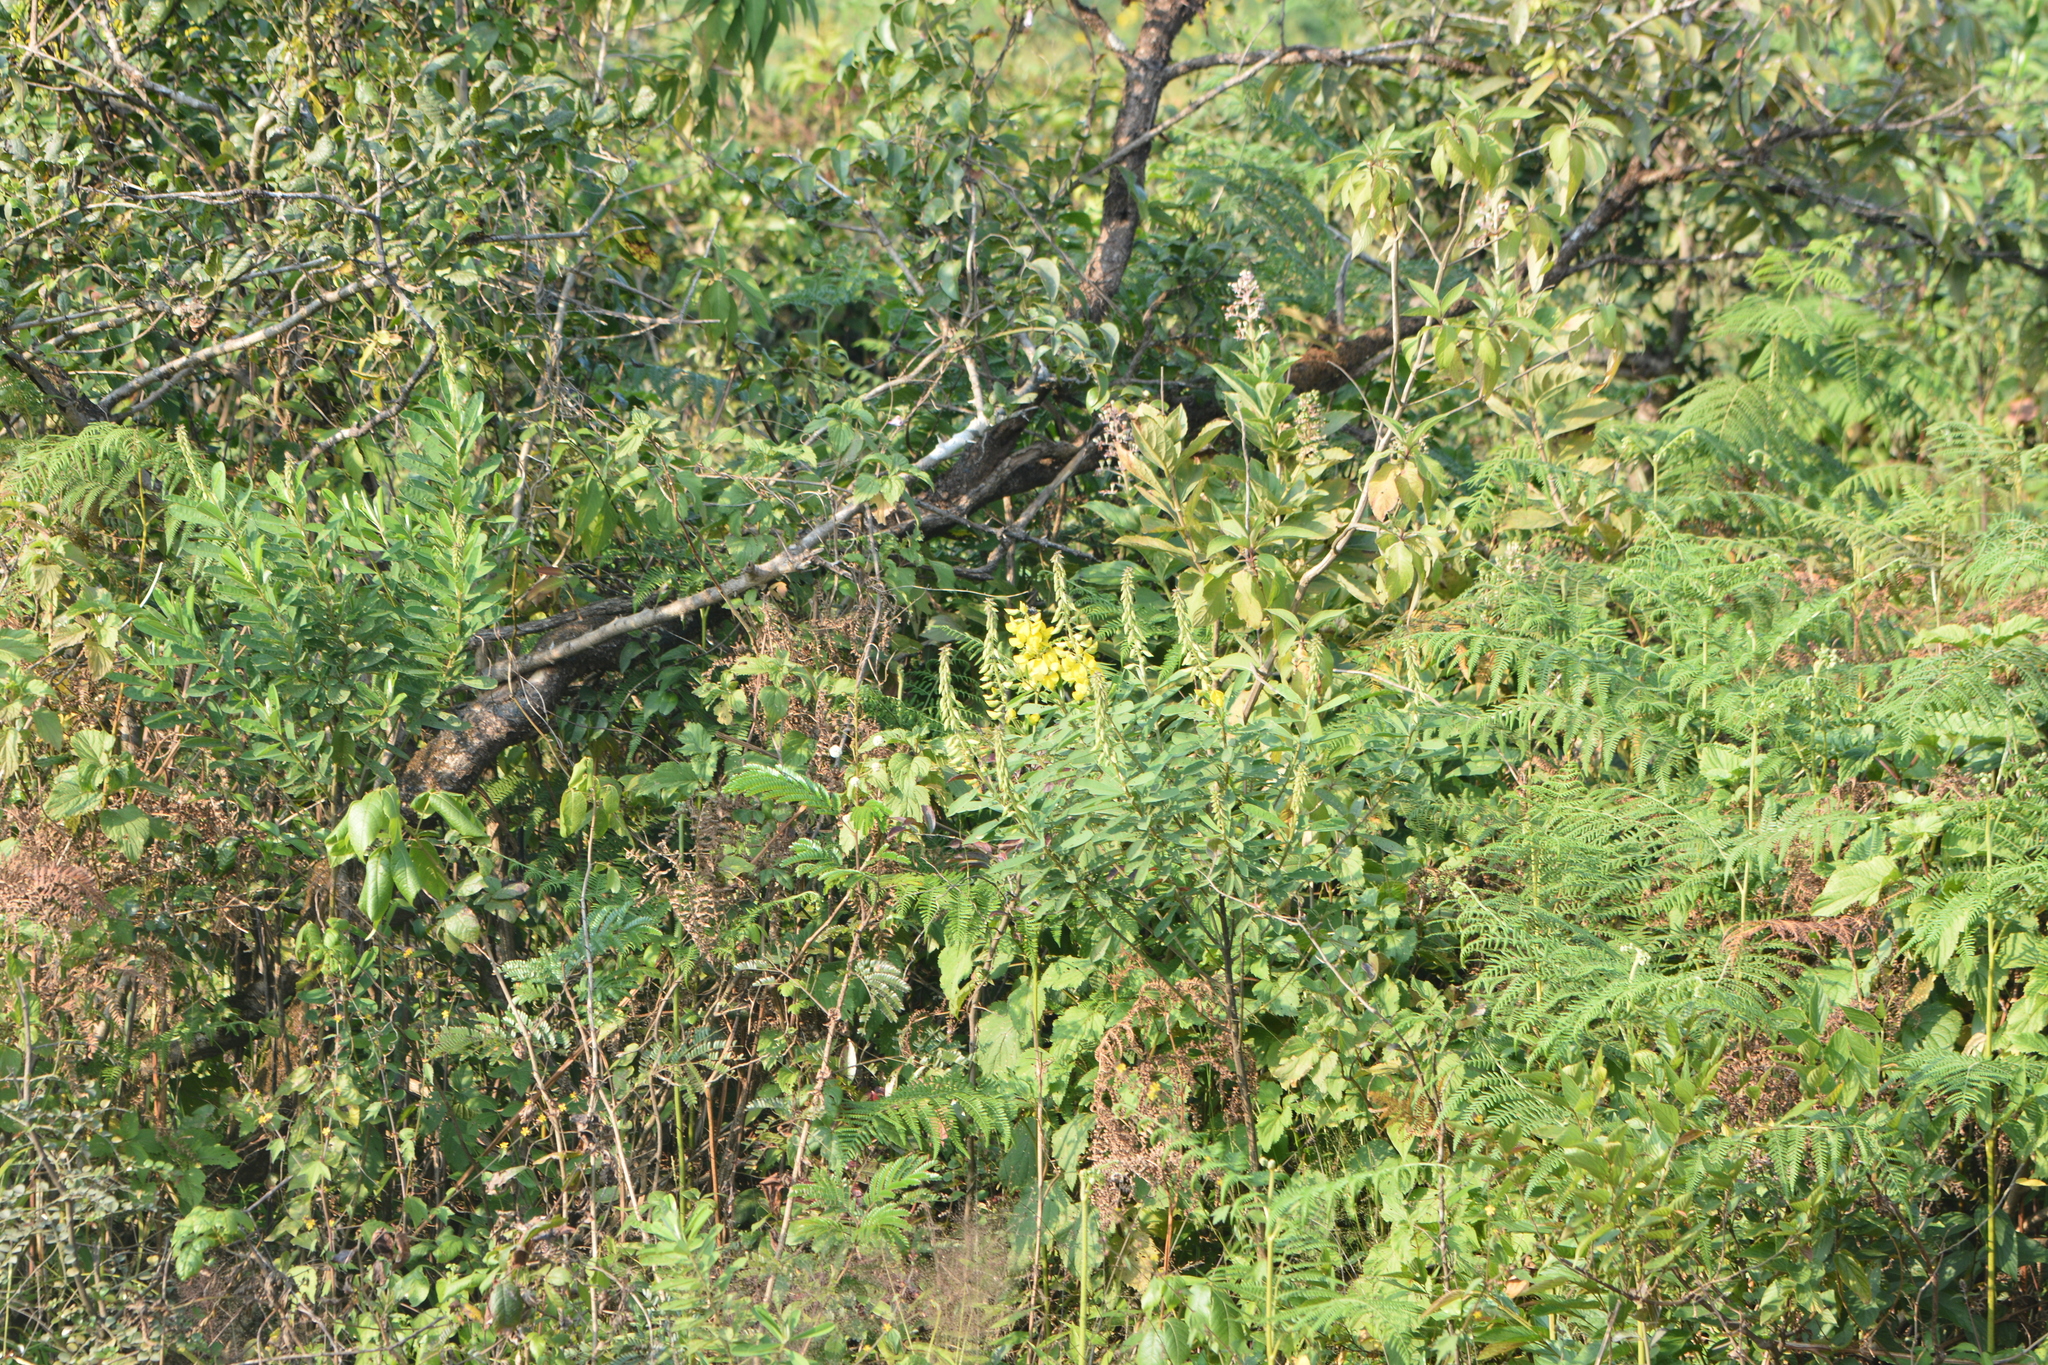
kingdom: Plantae
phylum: Tracheophyta
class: Magnoliopsida
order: Fabales
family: Fabaceae
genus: Crotalaria
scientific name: Crotalaria retusa
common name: Rattleweed
